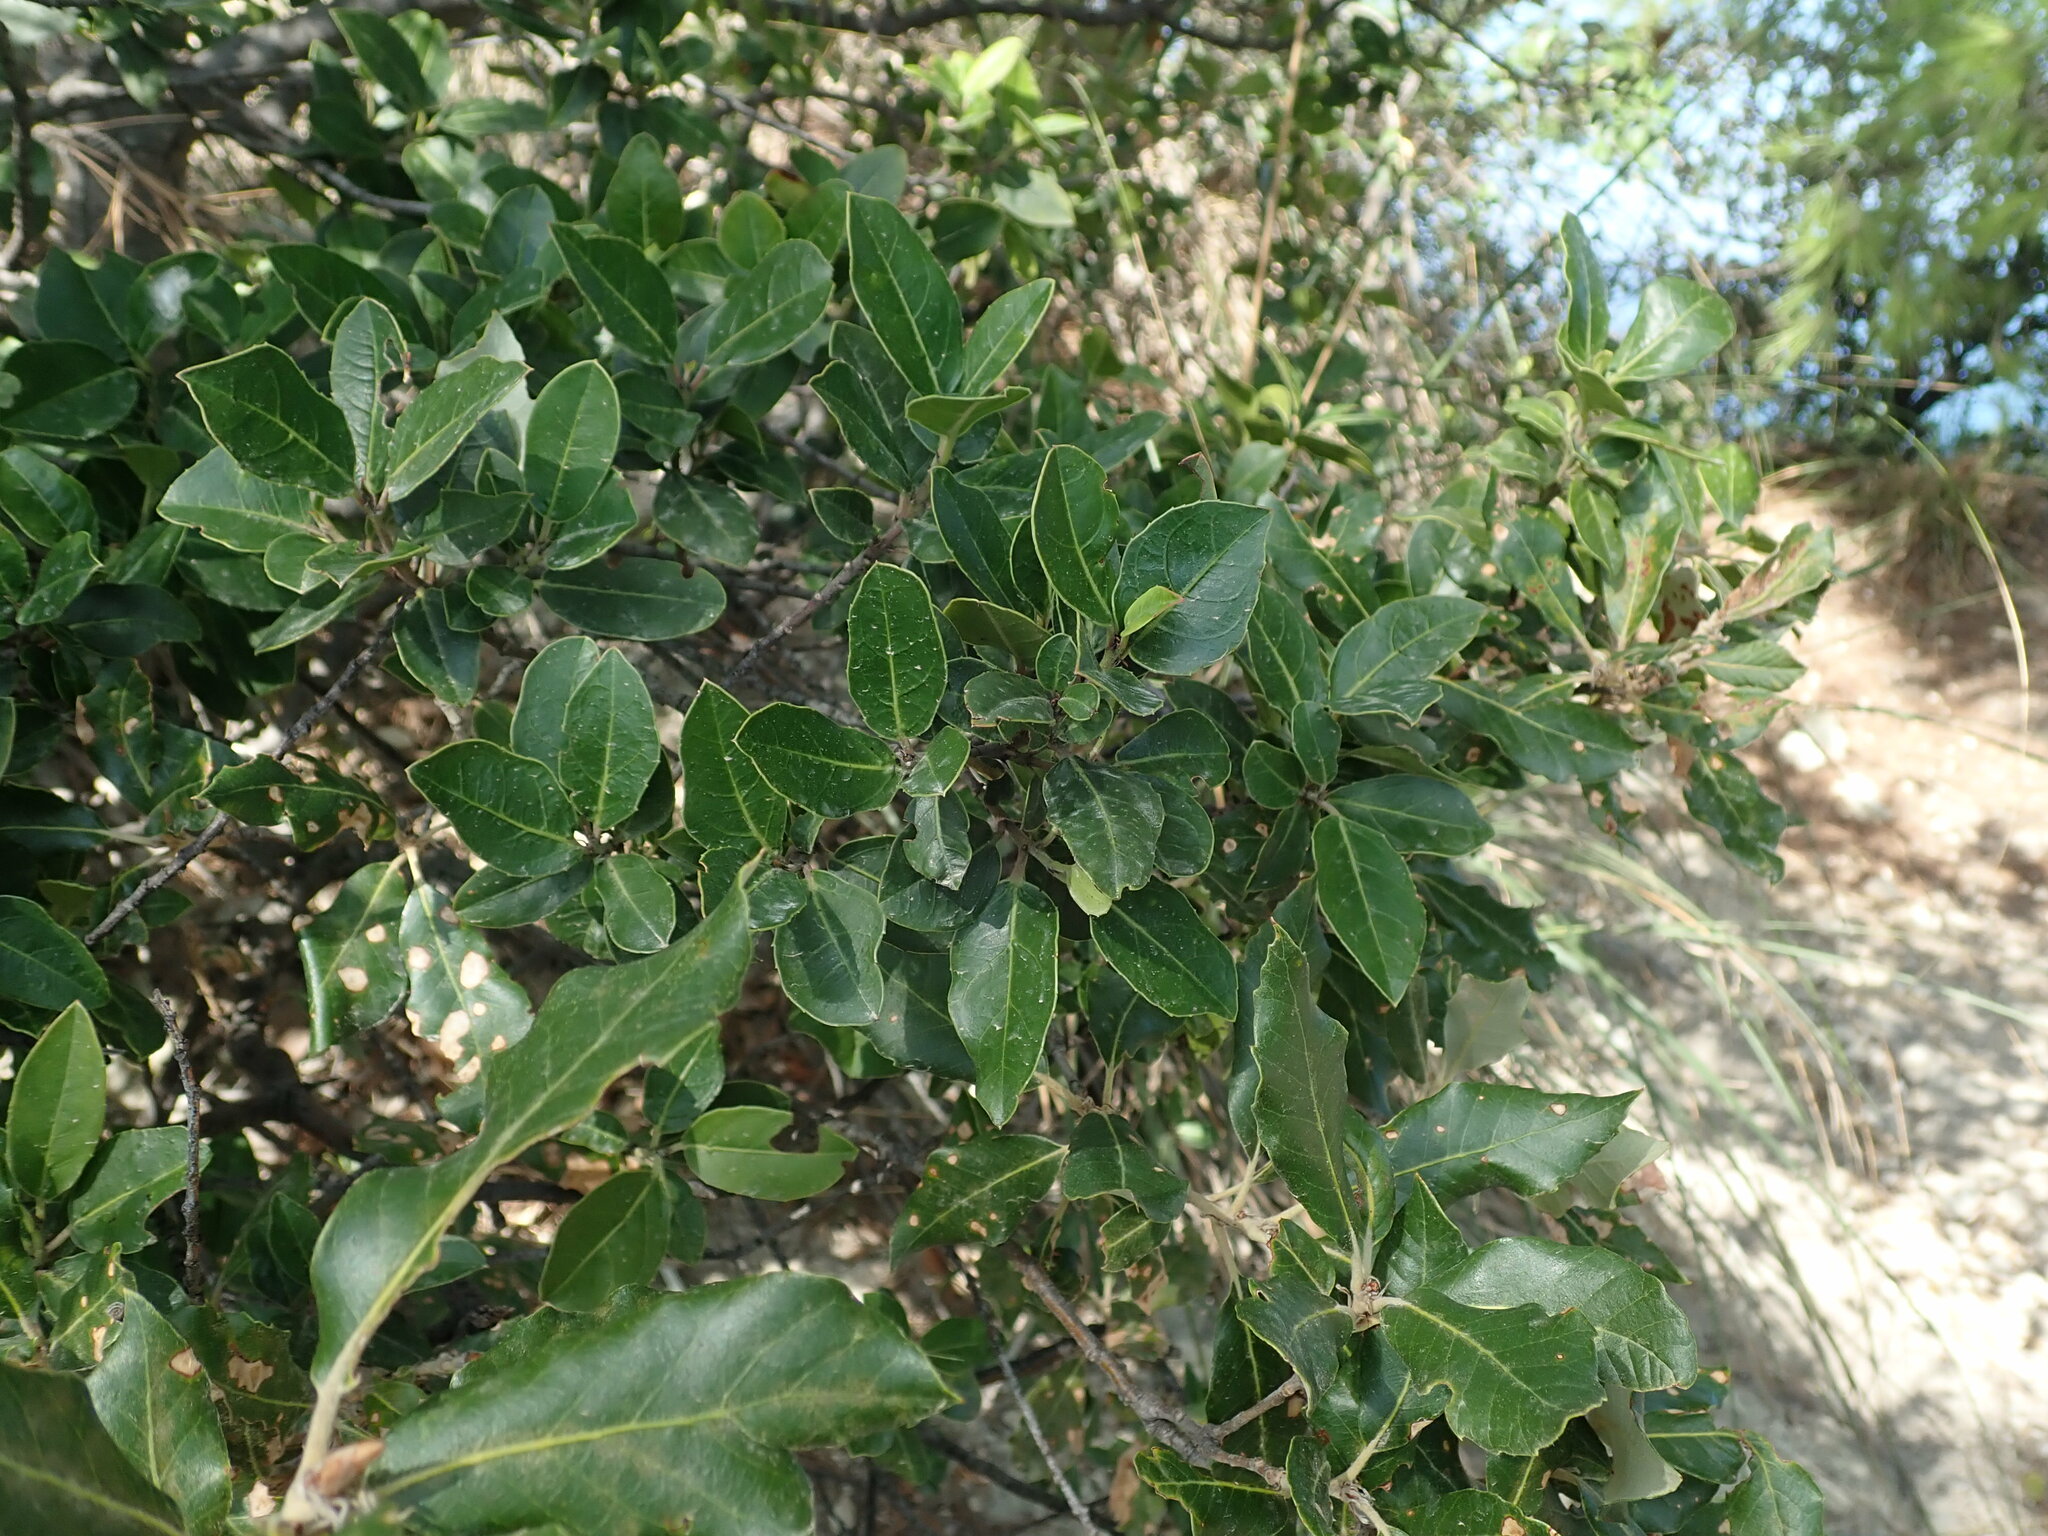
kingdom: Plantae
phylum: Tracheophyta
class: Magnoliopsida
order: Rosales
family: Rhamnaceae
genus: Rhamnus
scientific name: Rhamnus alaternus
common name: Mediterranean buckthorn
